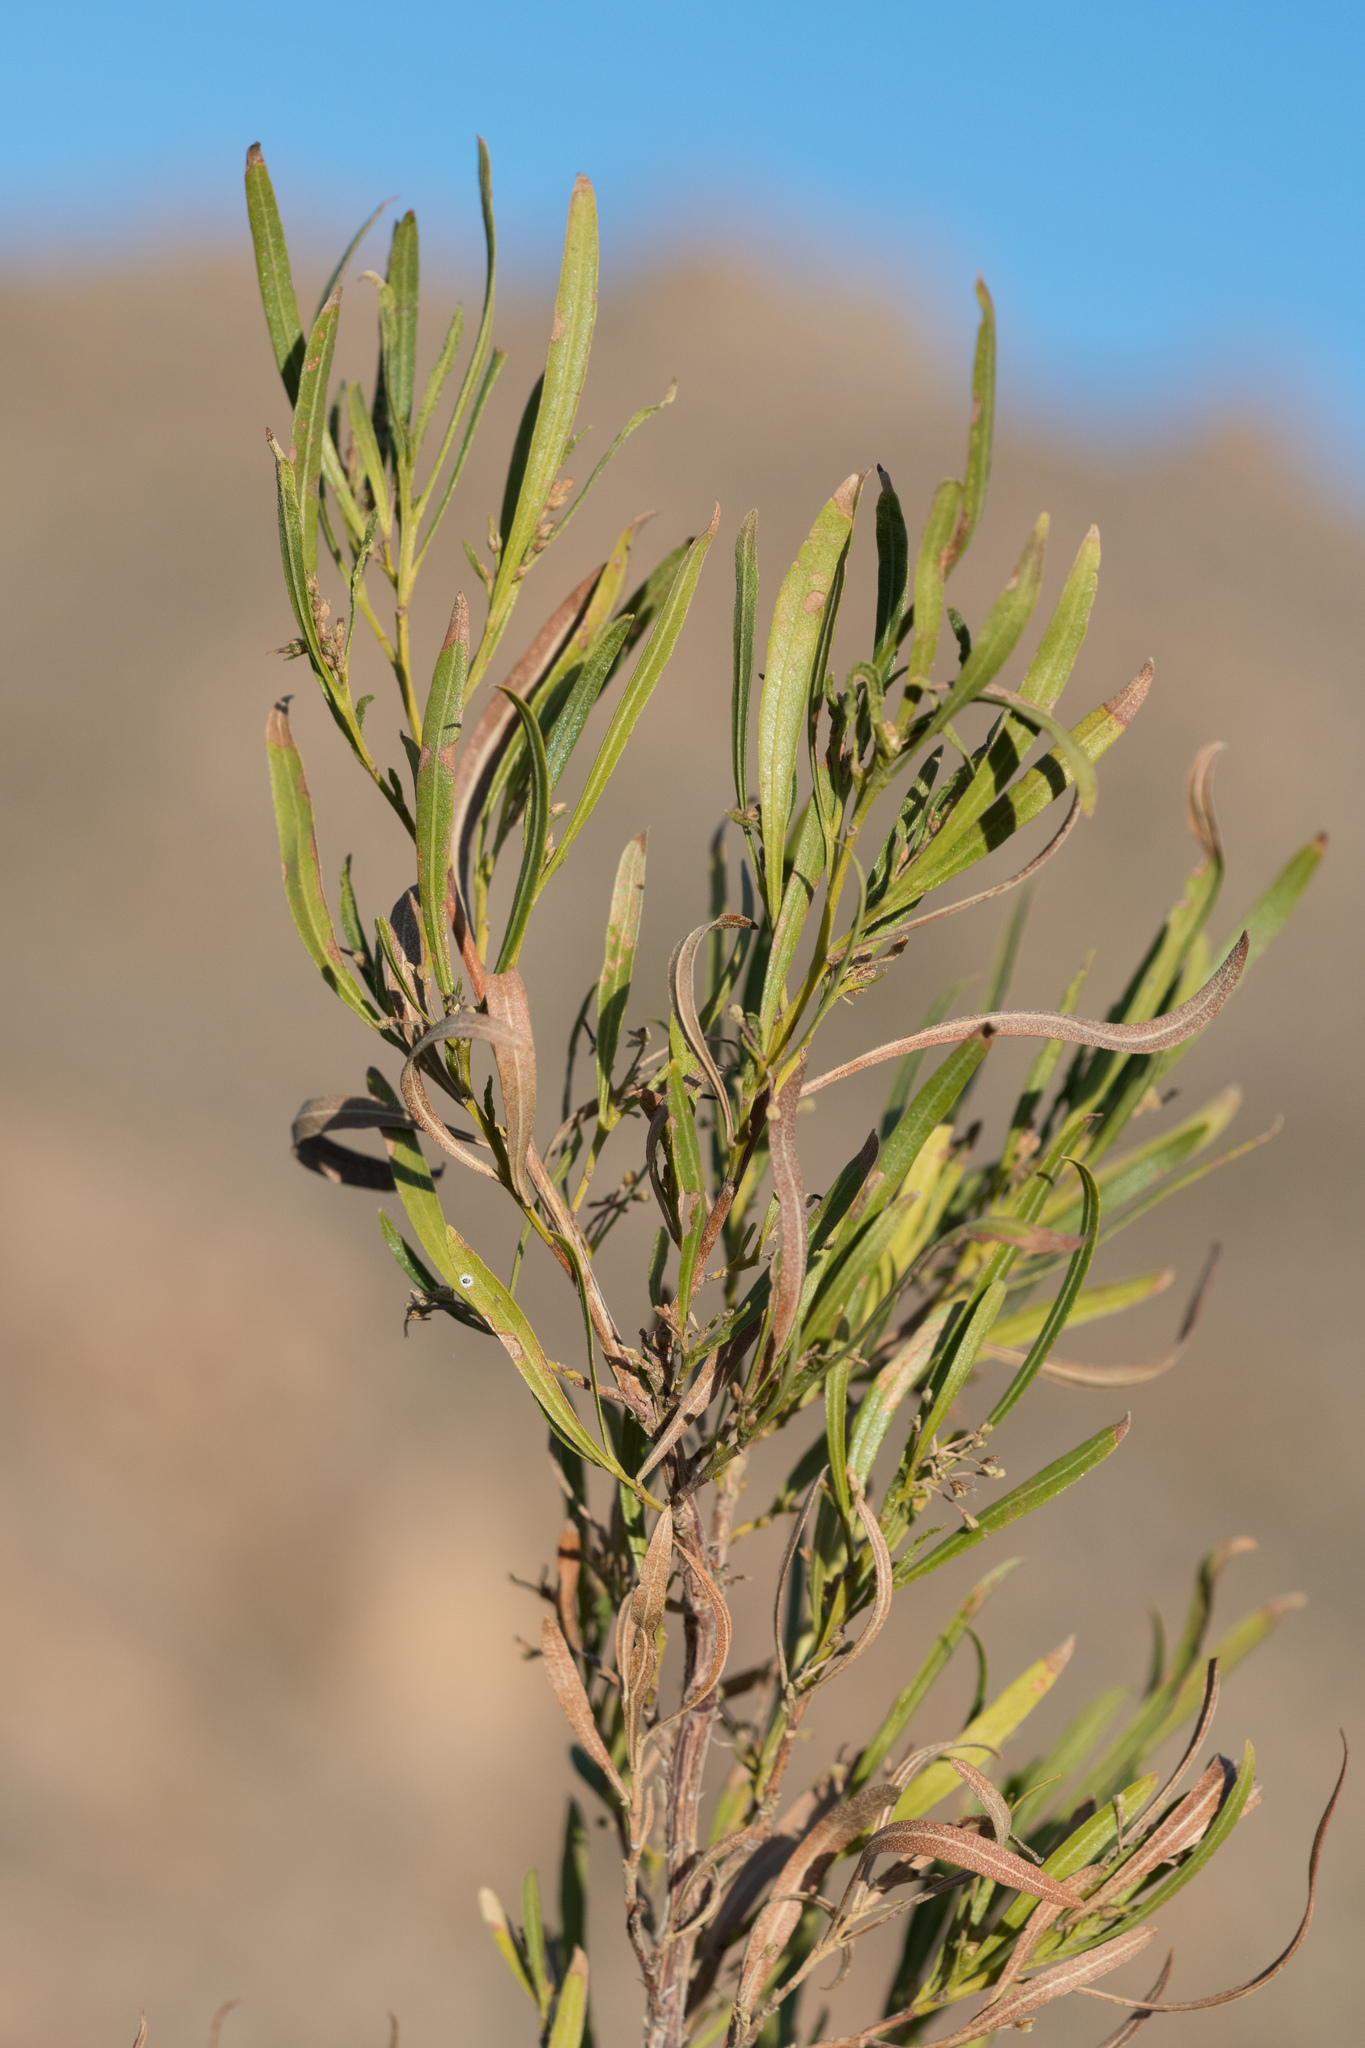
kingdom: Plantae
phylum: Tracheophyta
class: Magnoliopsida
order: Sapindales
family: Sapindaceae
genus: Dodonaea
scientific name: Dodonaea viscosa
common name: Hopbush
